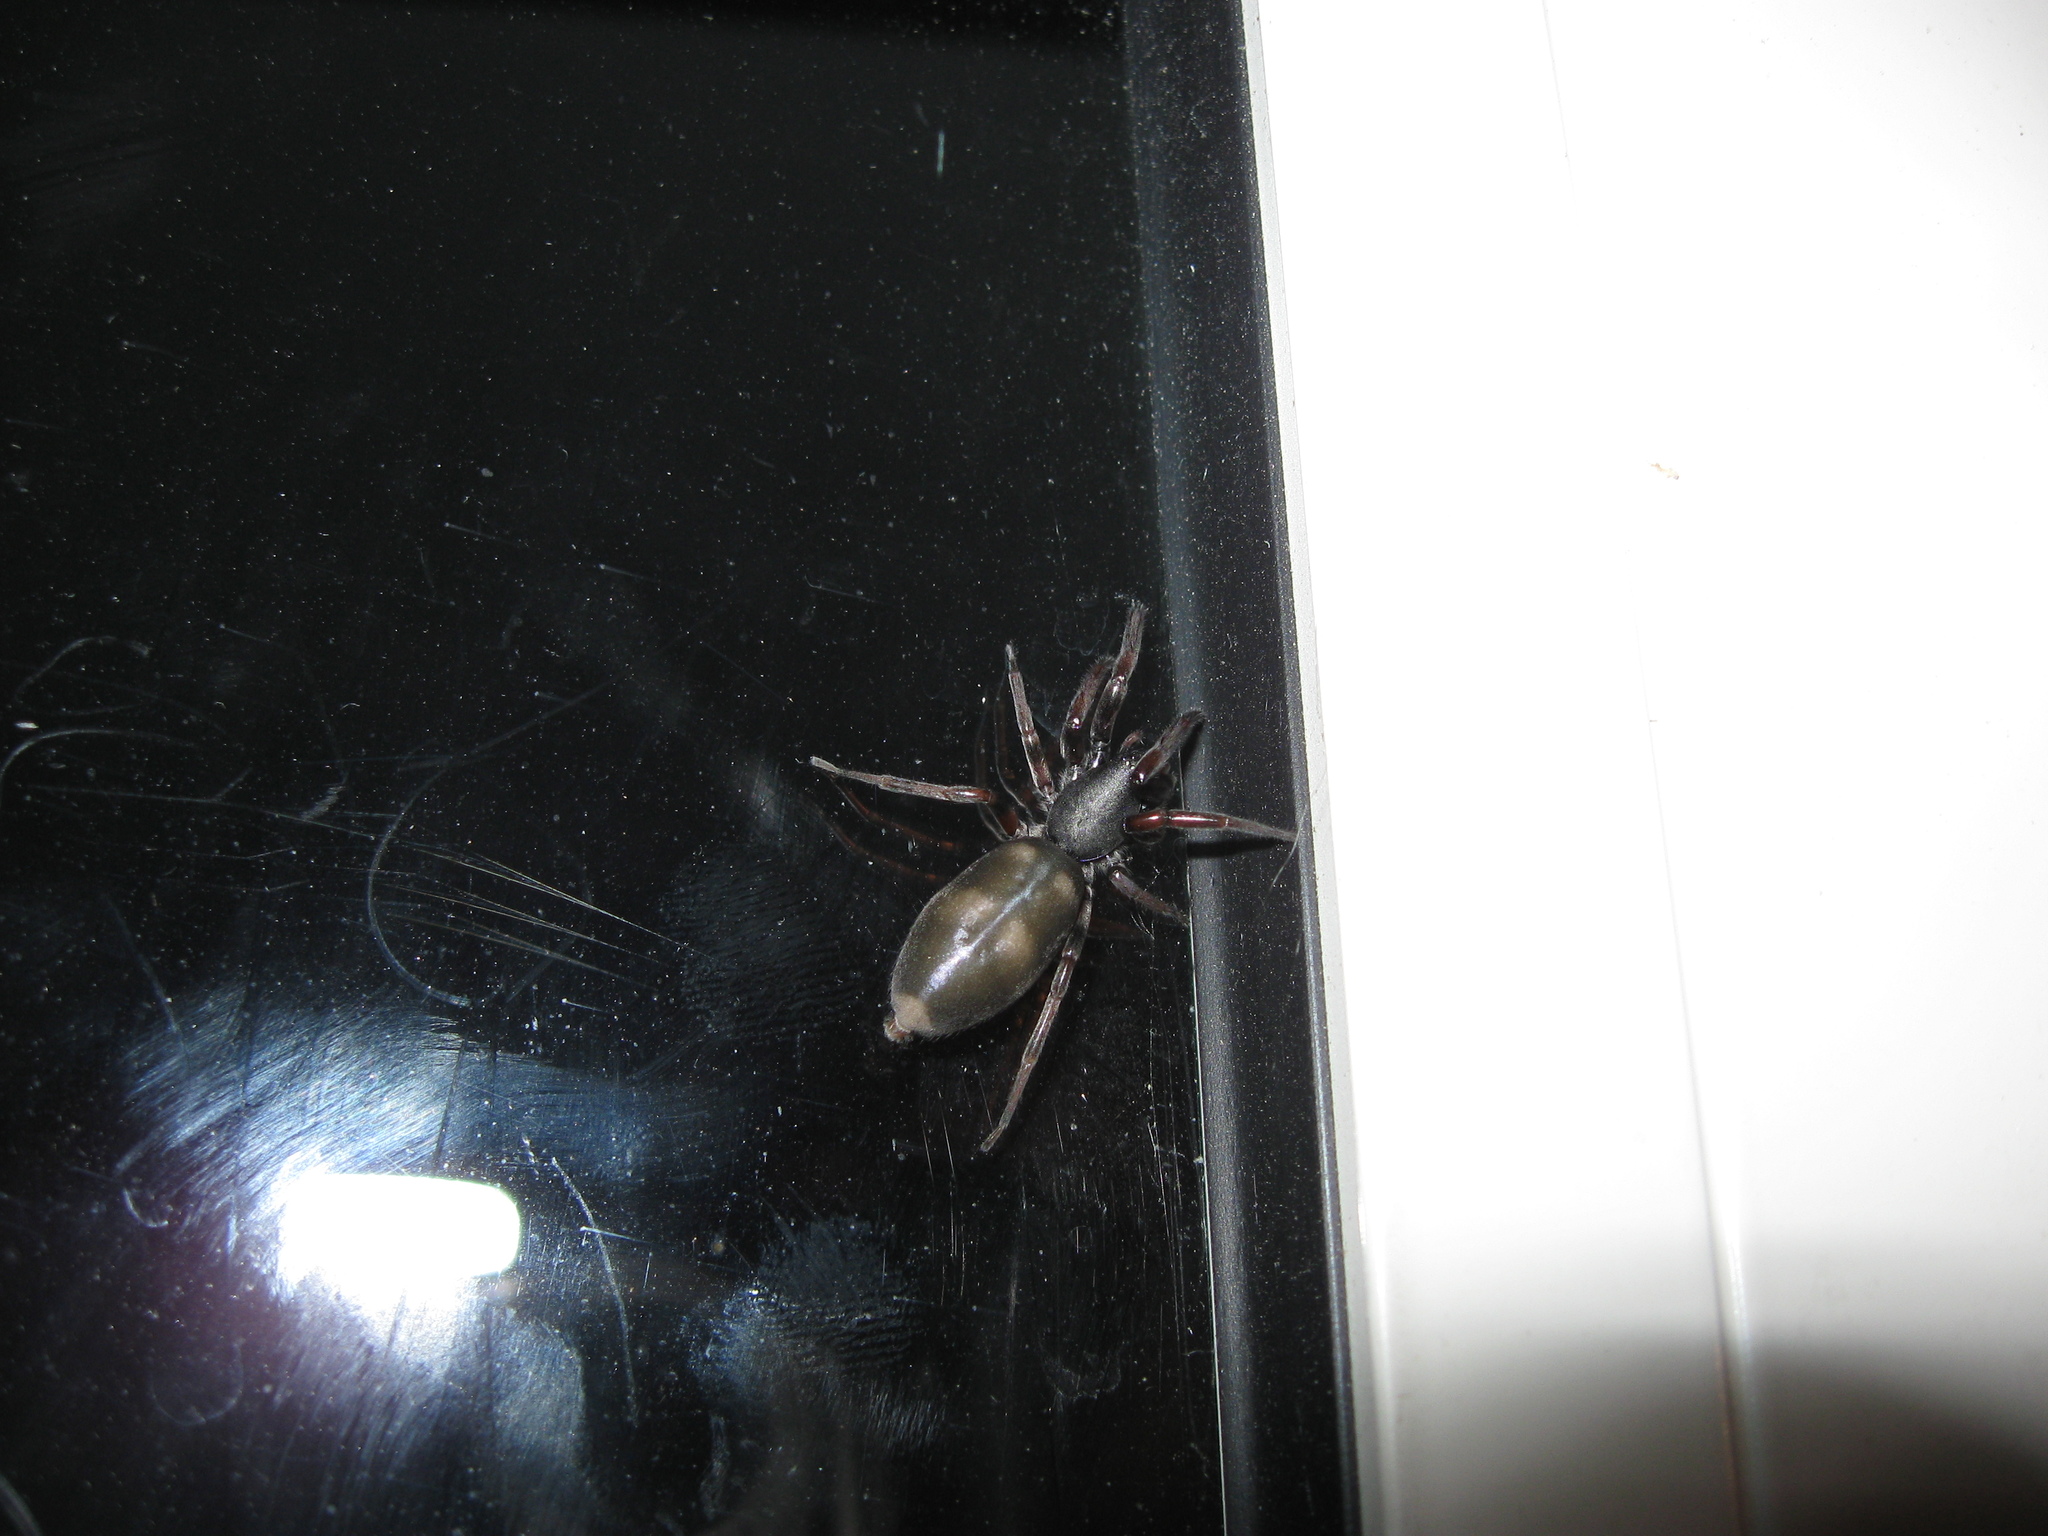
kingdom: Animalia
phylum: Arthropoda
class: Arachnida
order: Araneae
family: Lamponidae
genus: Lampona
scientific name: Lampona cylindrata
